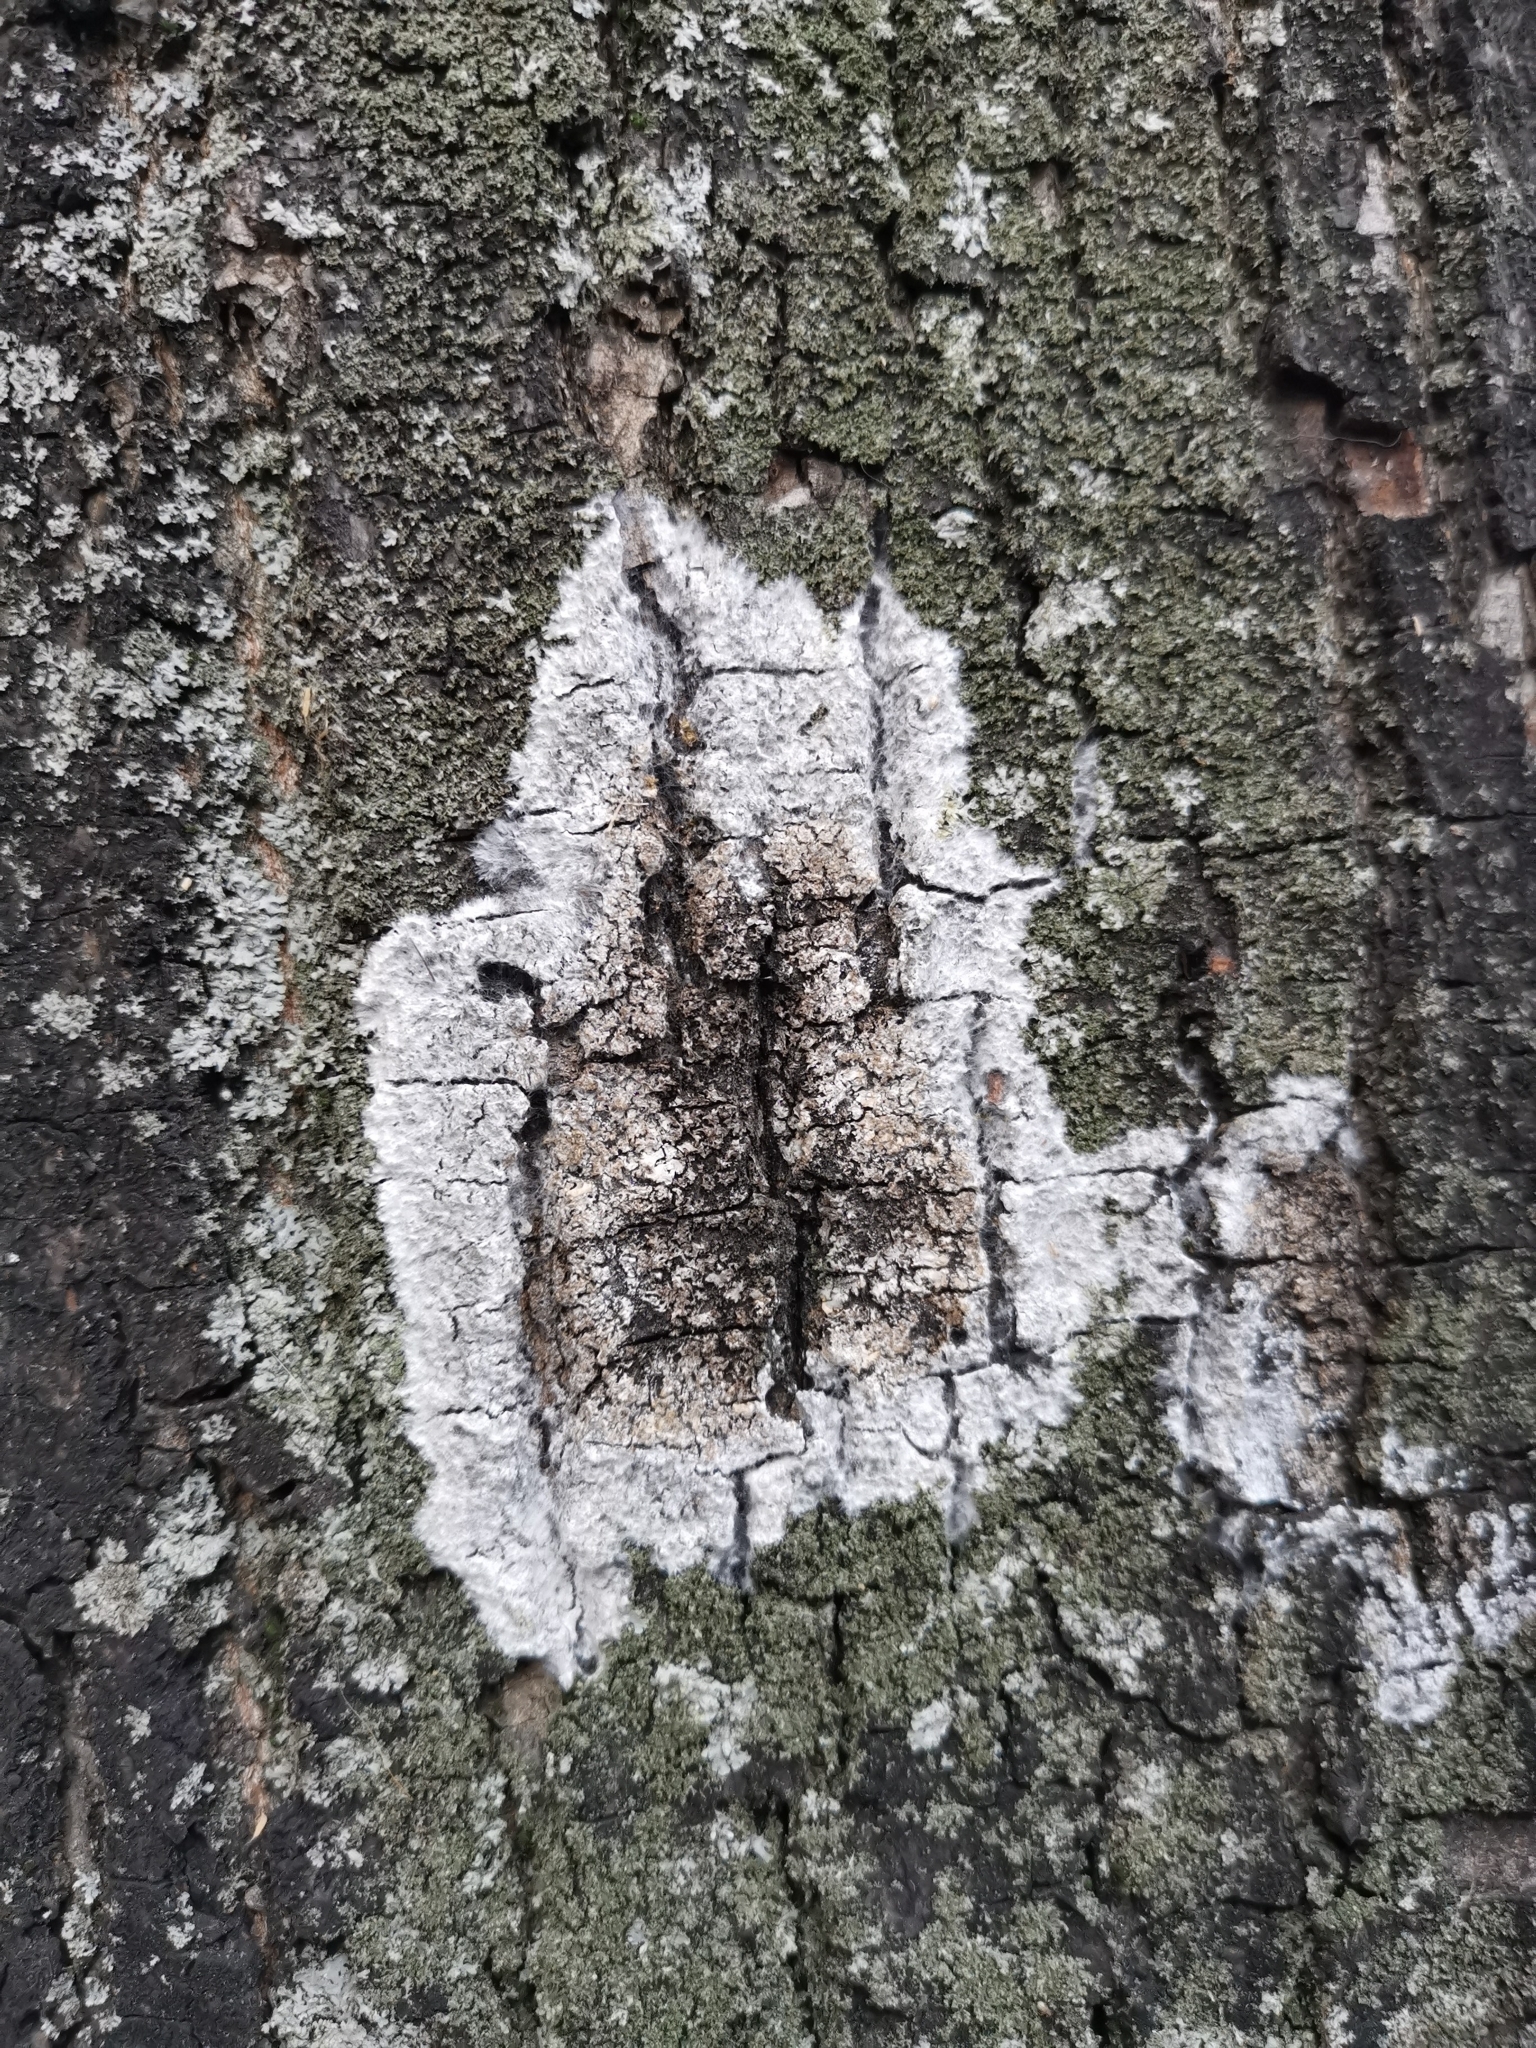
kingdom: Fungi
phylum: Basidiomycota
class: Agaricomycetes
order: Atheliales
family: Atheliaceae
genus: Athelia
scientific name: Athelia arachnoidea
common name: Candelabra duster
